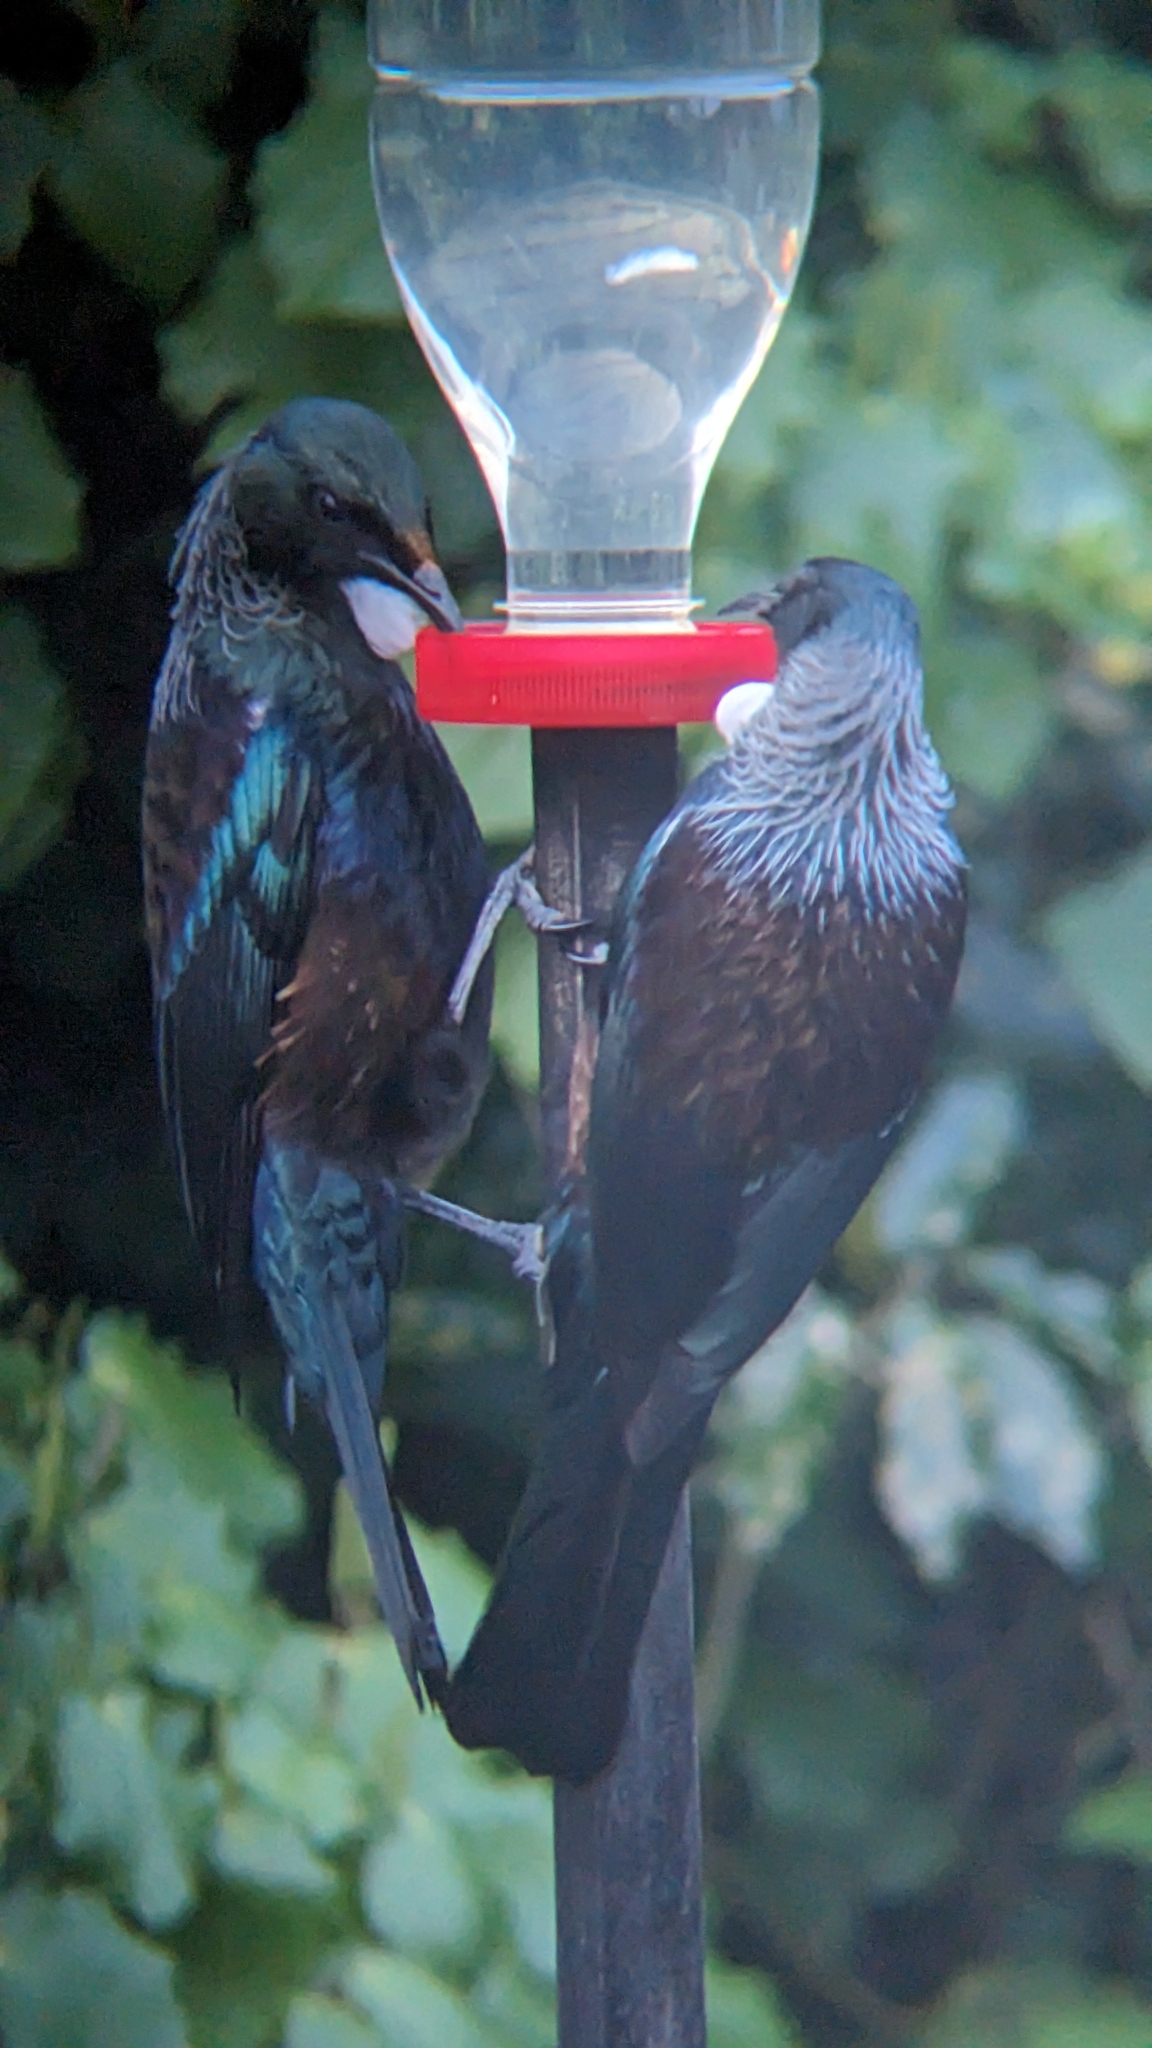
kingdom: Animalia
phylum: Chordata
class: Aves
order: Passeriformes
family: Meliphagidae
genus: Prosthemadera
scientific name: Prosthemadera novaeseelandiae
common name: Tui
